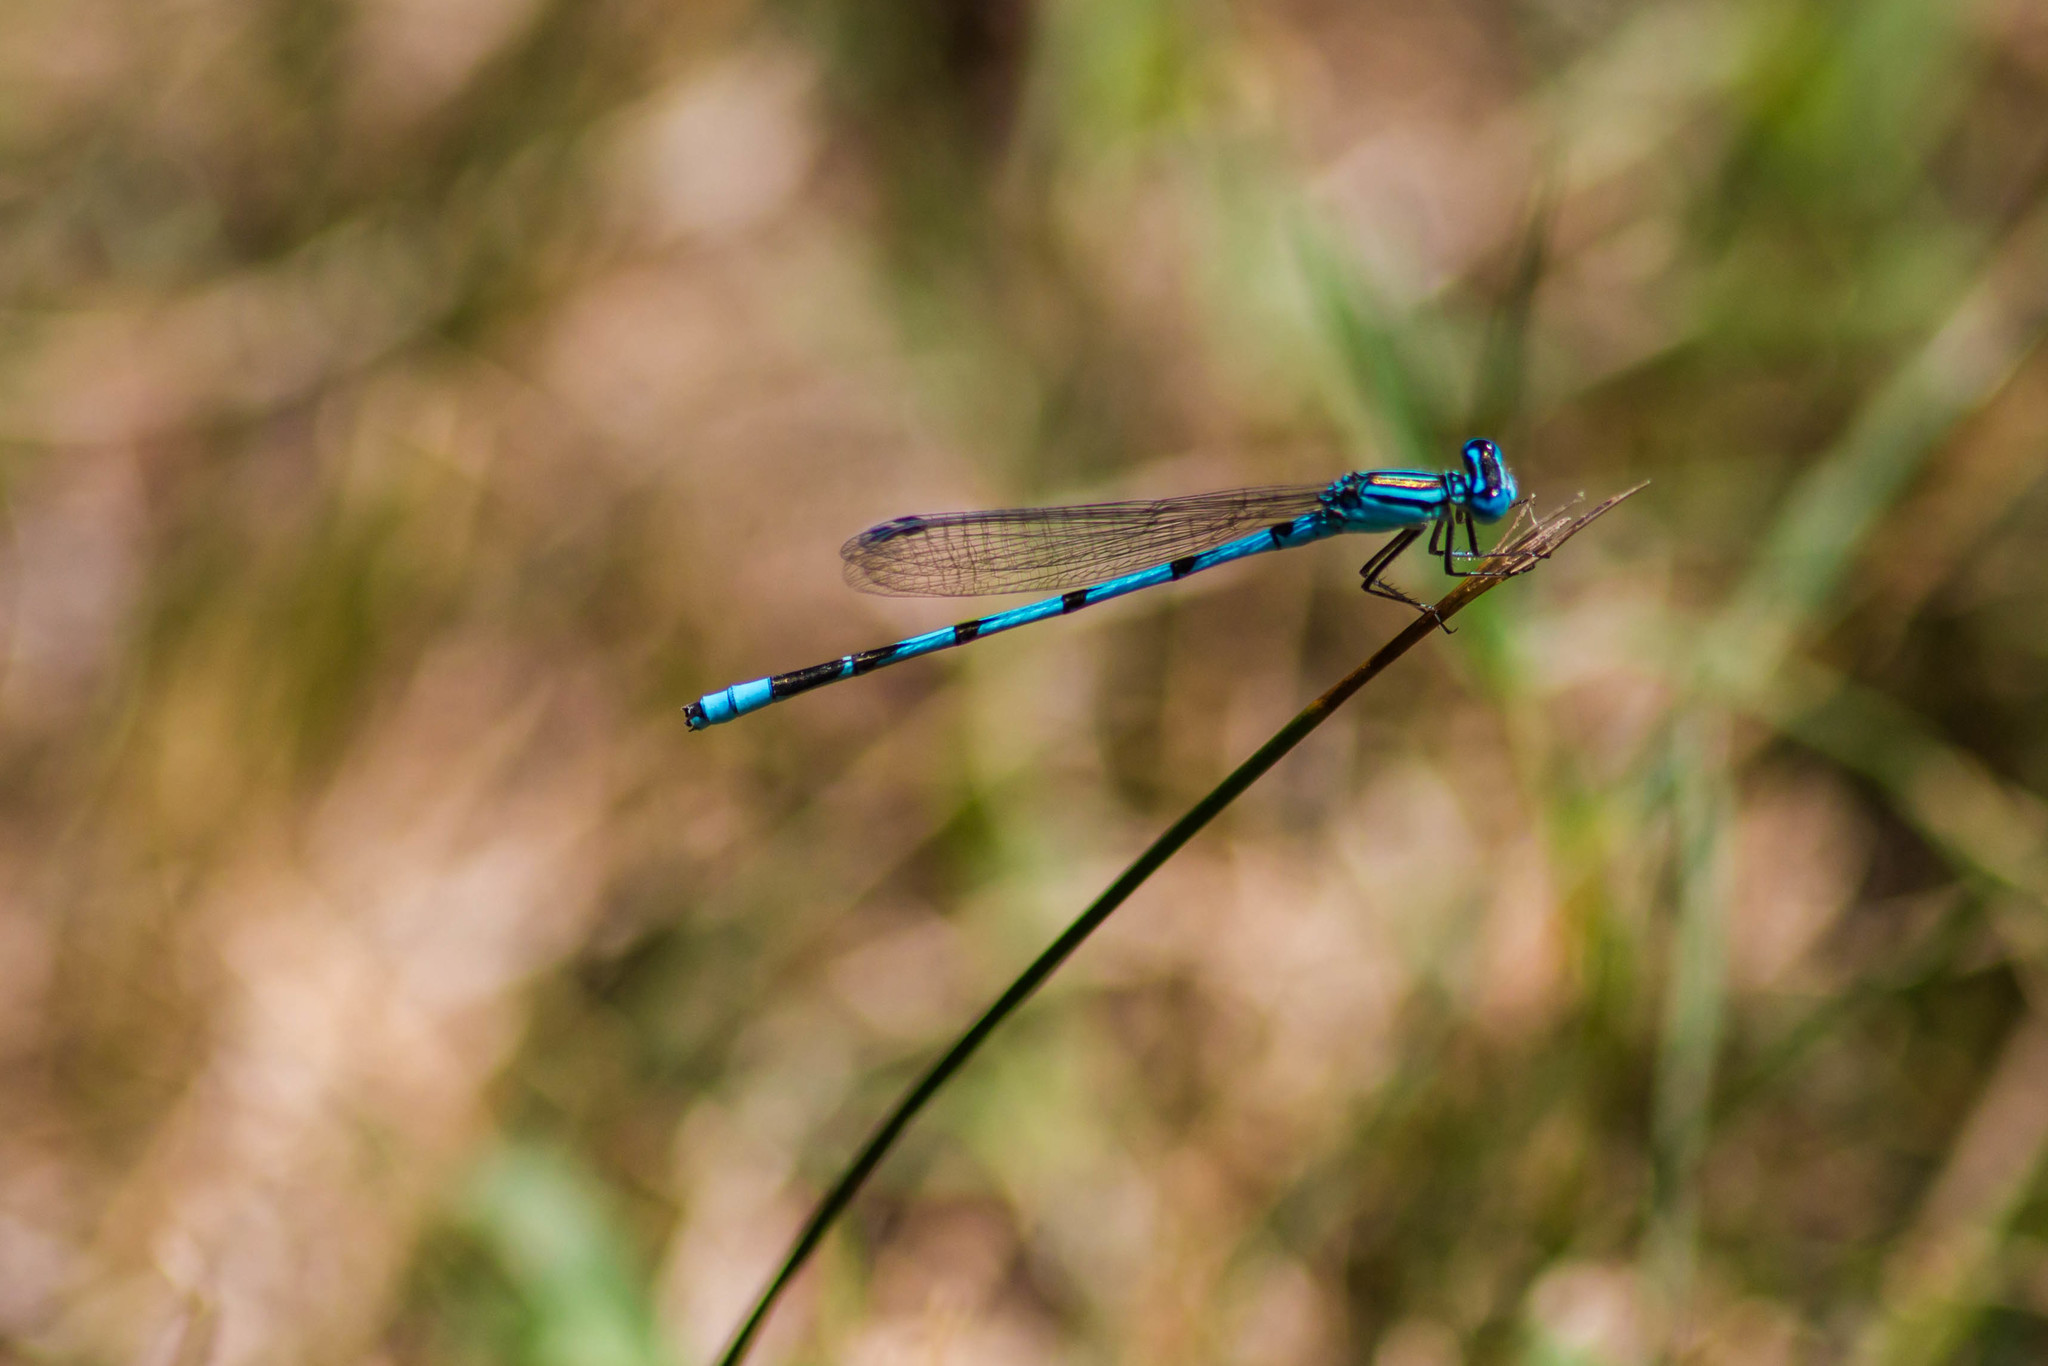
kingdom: Animalia
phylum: Arthropoda
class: Insecta
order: Odonata
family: Coenagrionidae
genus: Enallagma
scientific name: Enallagma durum
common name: Big bluet
